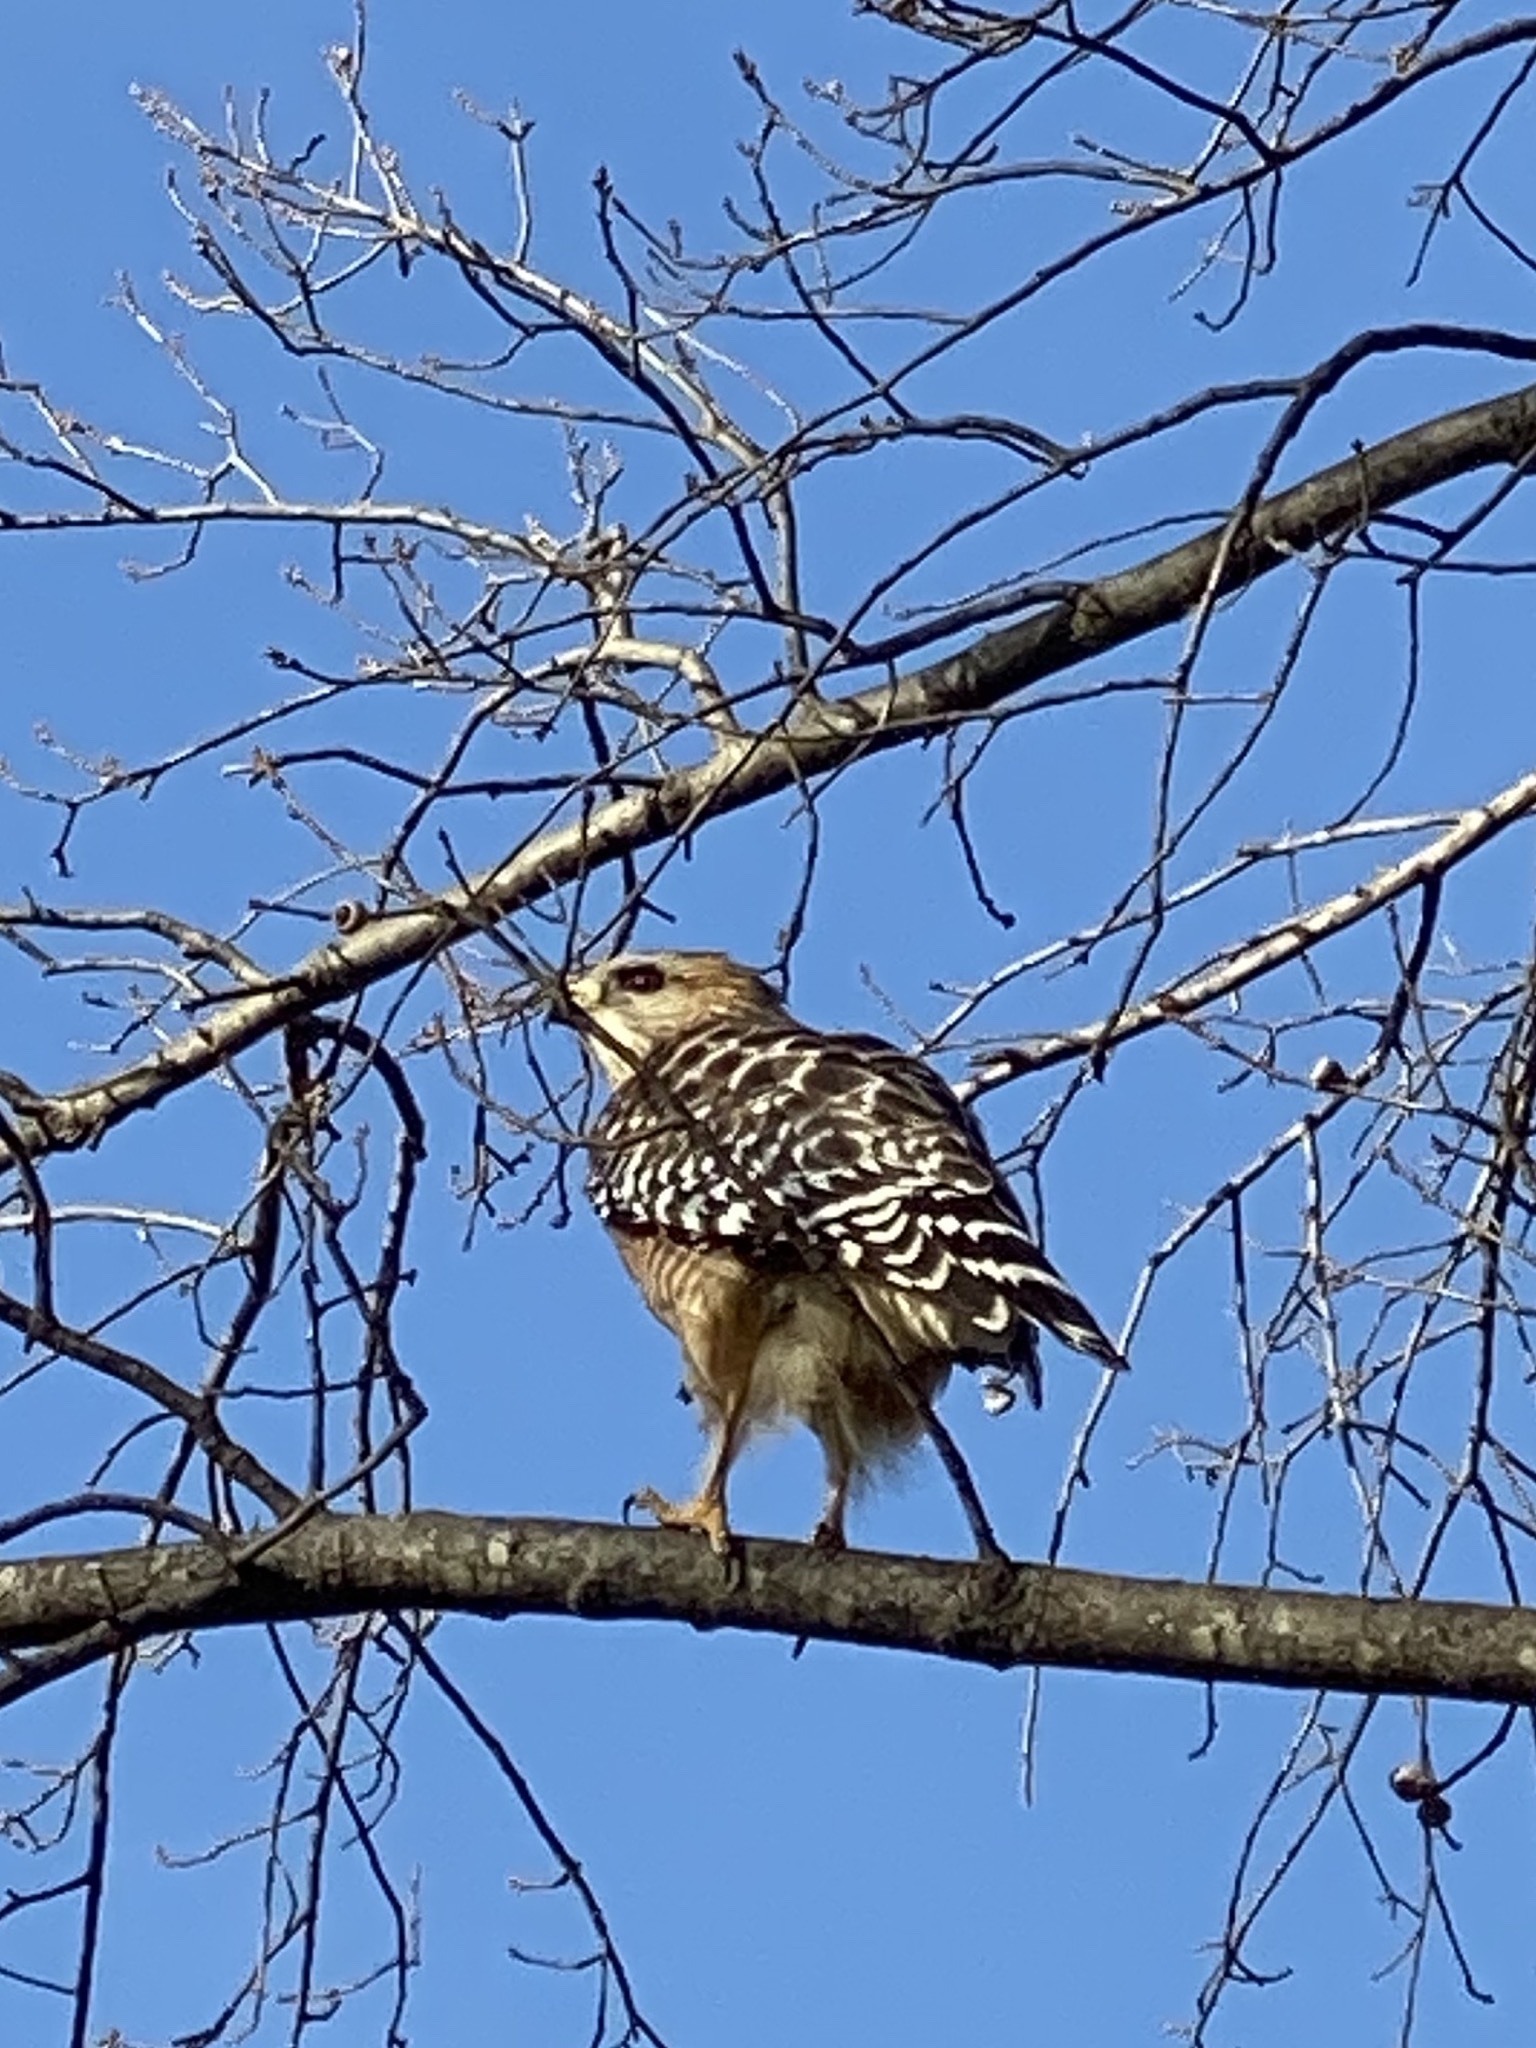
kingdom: Animalia
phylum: Chordata
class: Aves
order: Accipitriformes
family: Accipitridae
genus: Buteo
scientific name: Buteo lineatus
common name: Red-shouldered hawk
